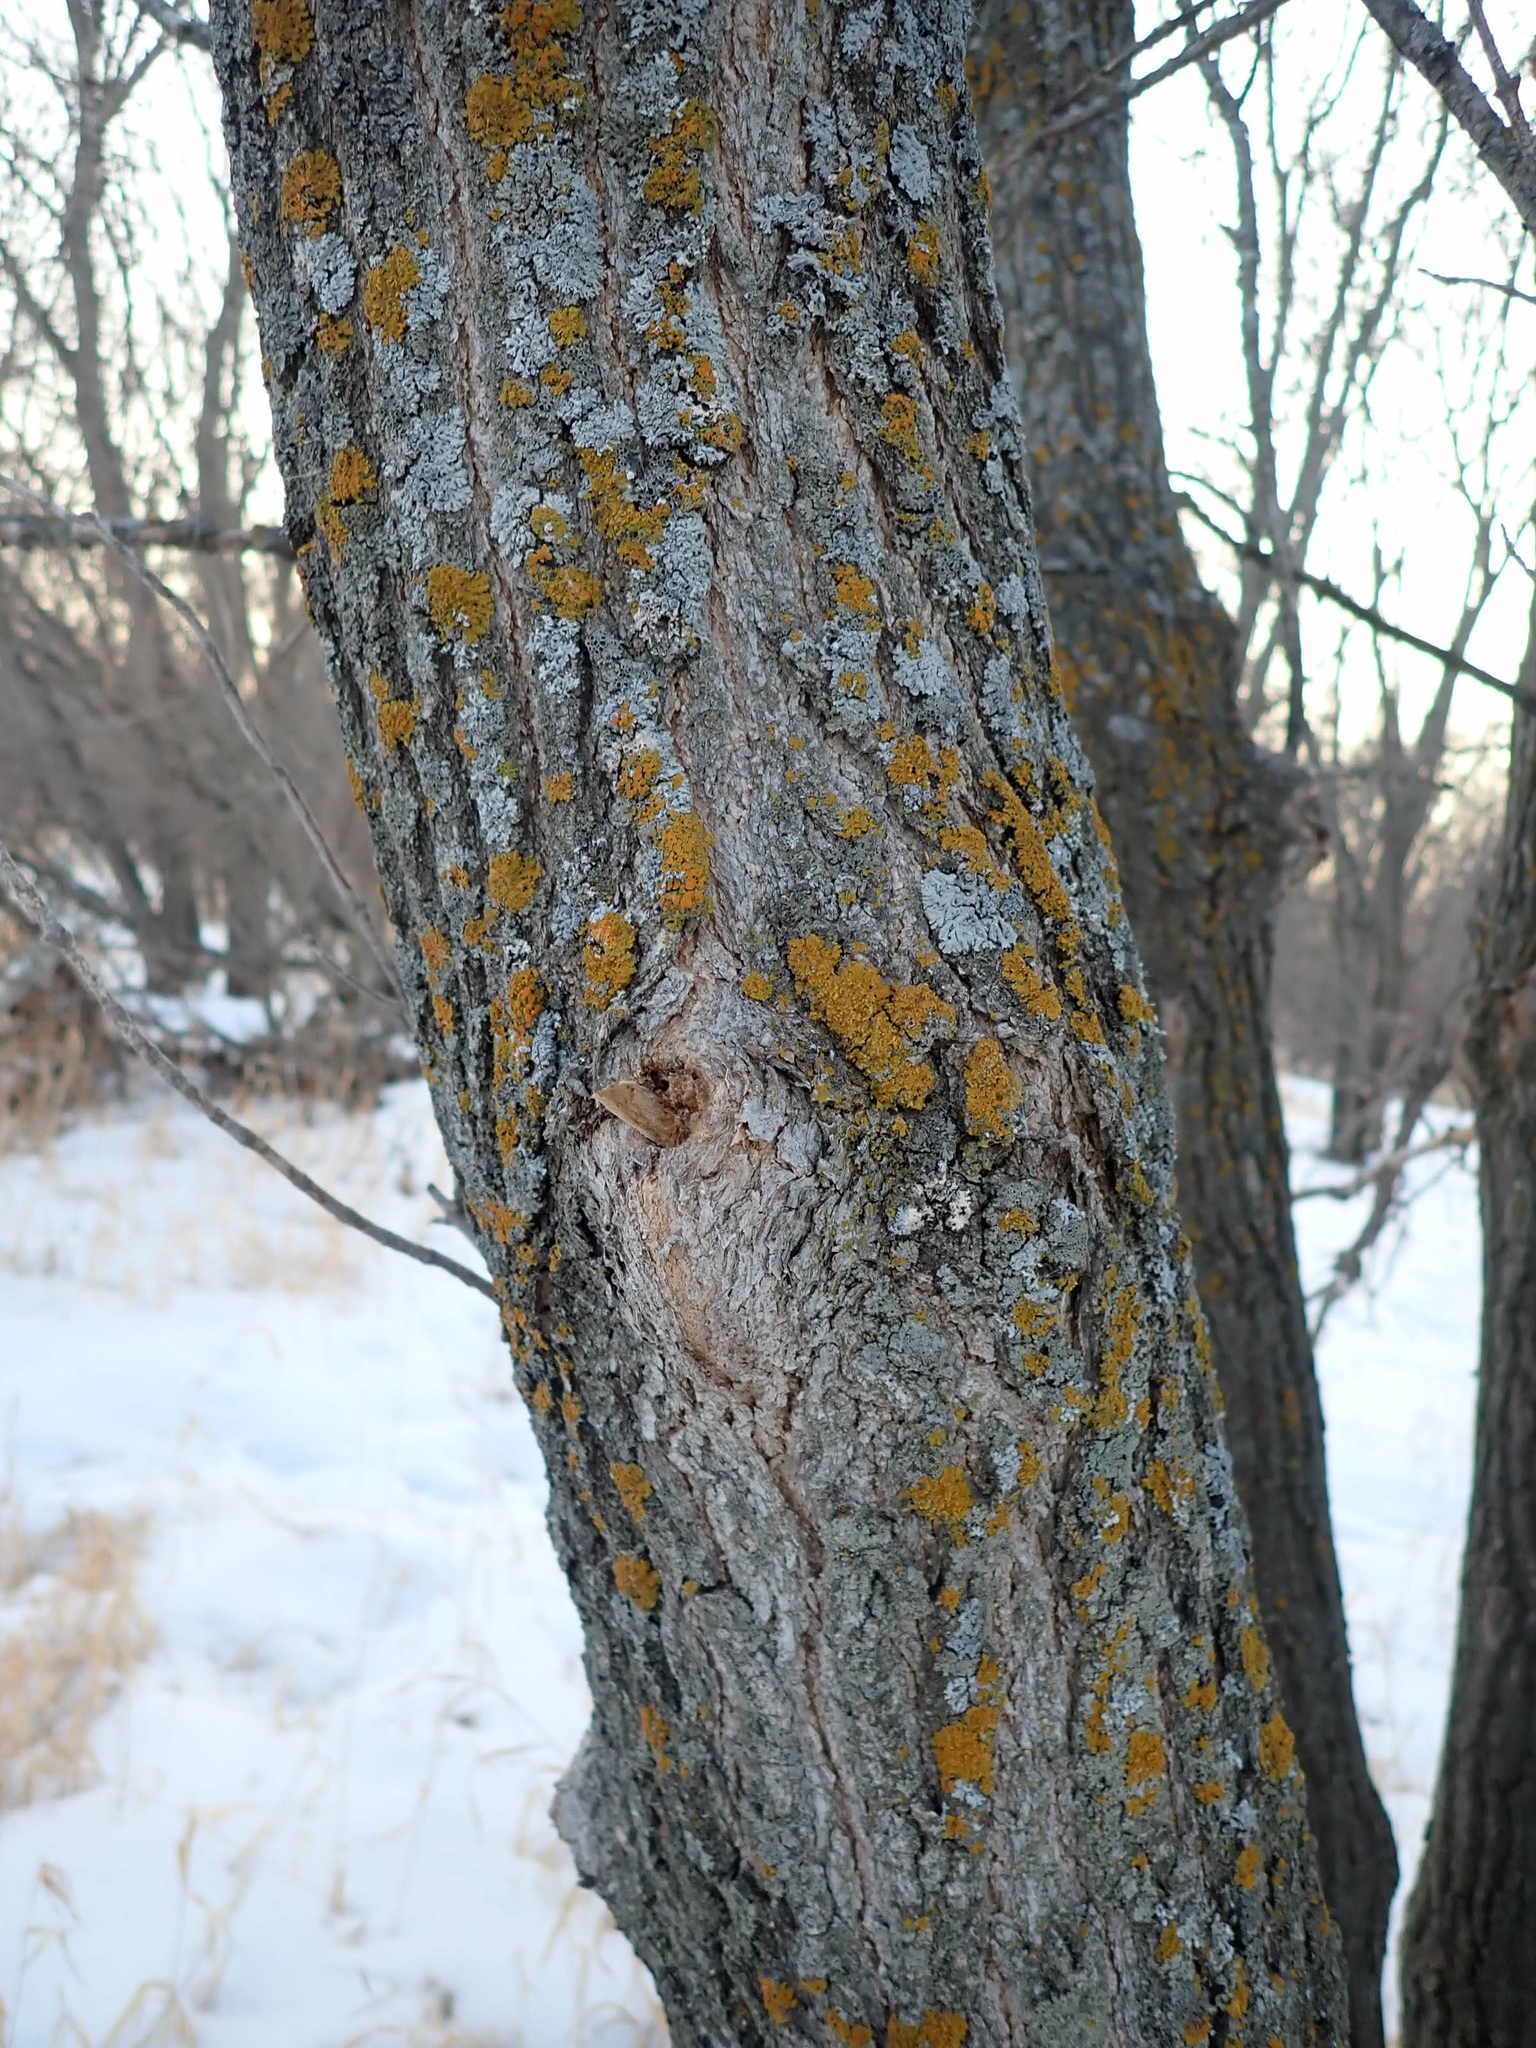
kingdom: Plantae
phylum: Tracheophyta
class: Magnoliopsida
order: Sapindales
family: Sapindaceae
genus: Acer
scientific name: Acer negundo
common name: Ashleaf maple
